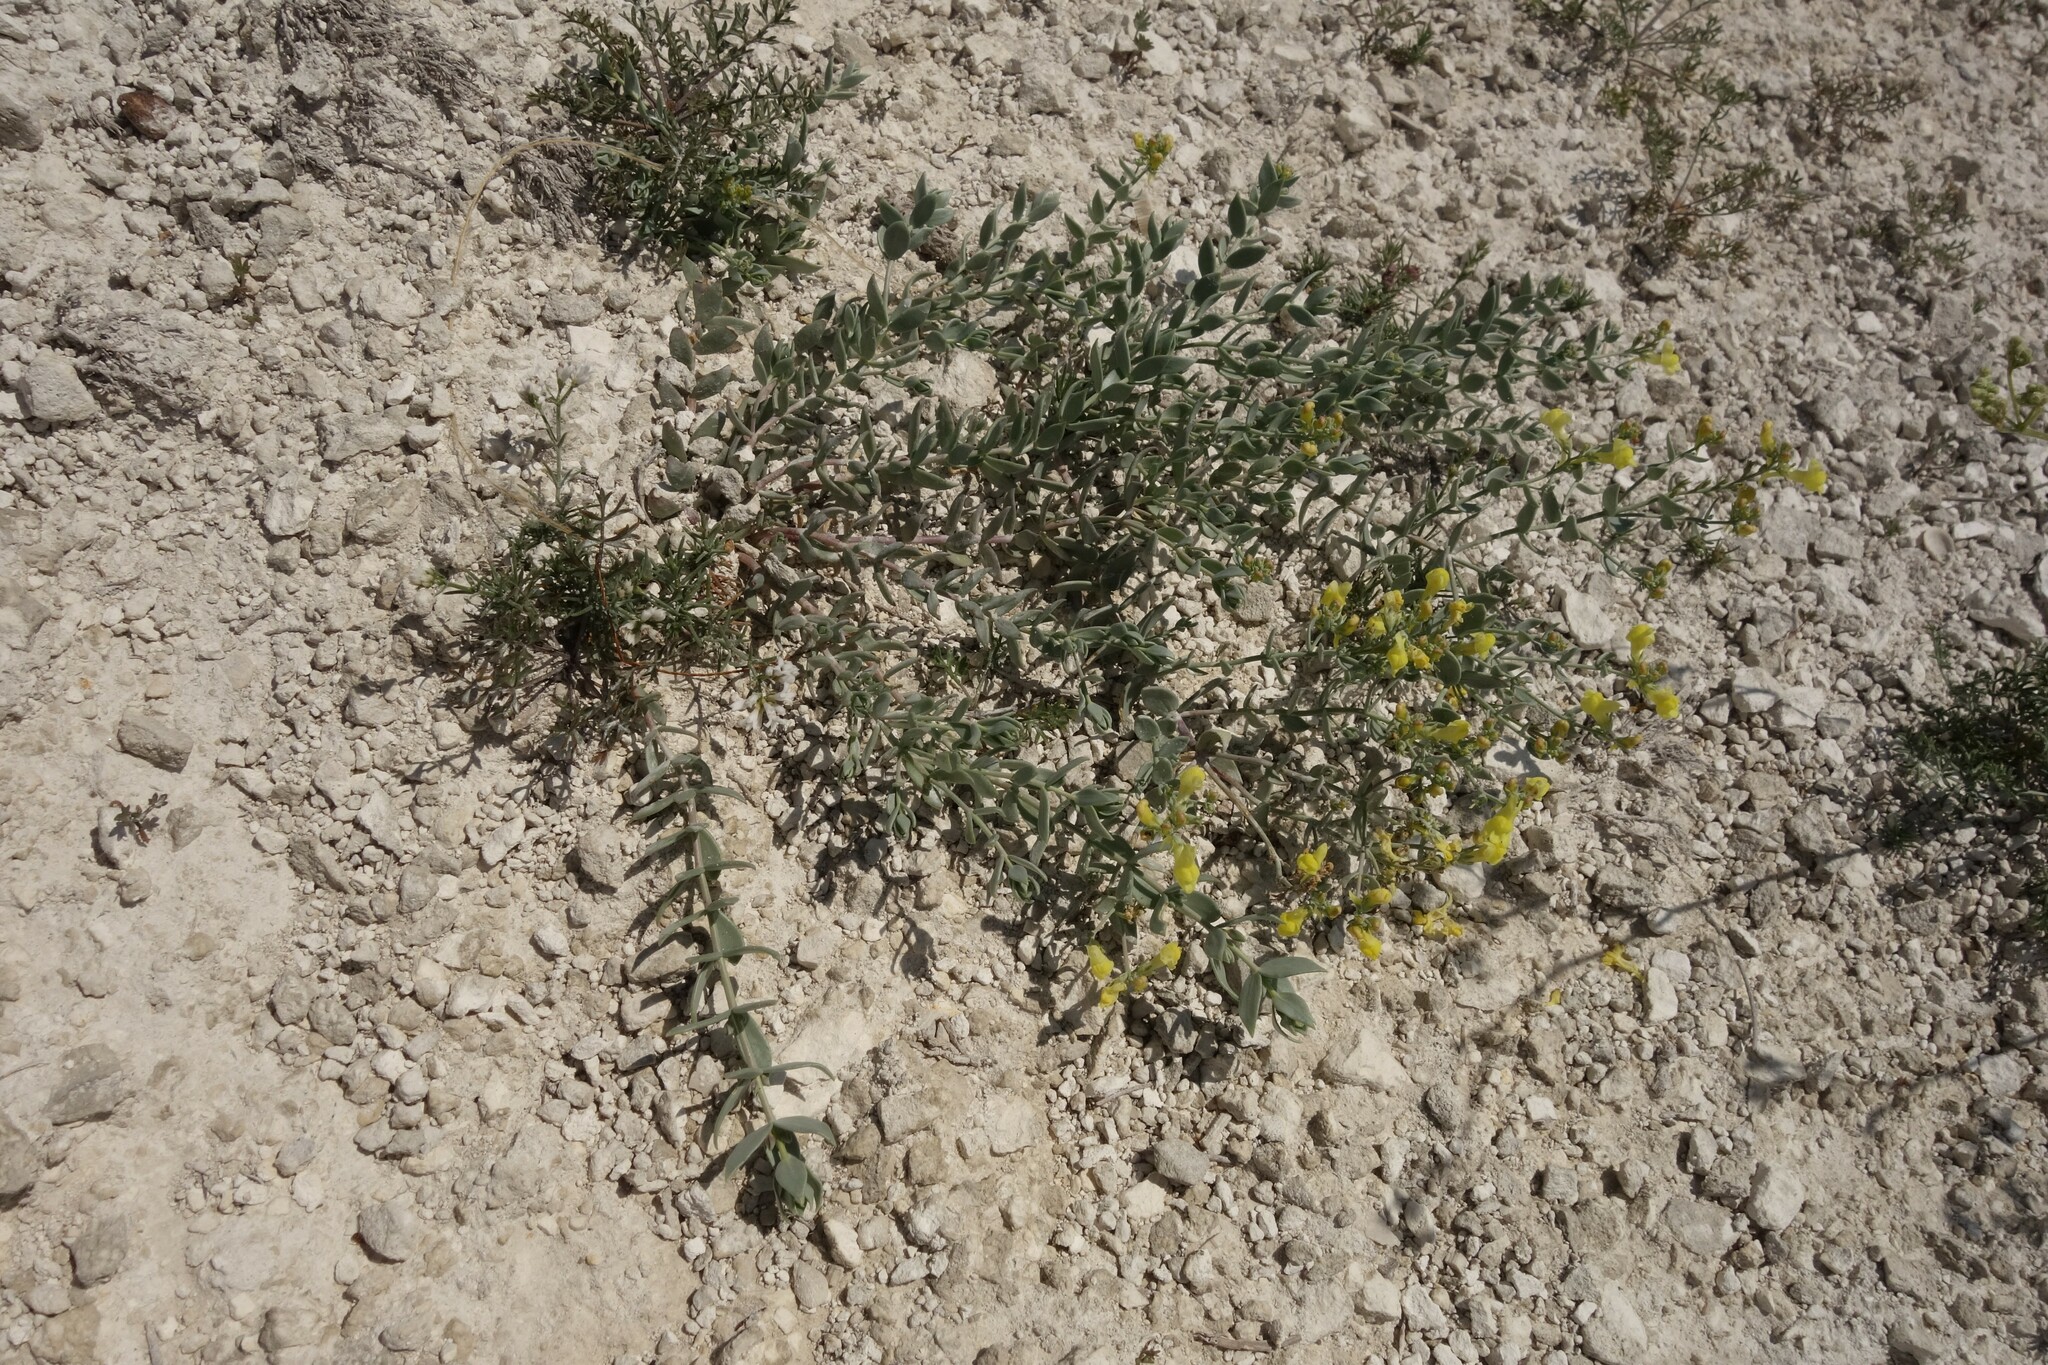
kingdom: Plantae
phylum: Tracheophyta
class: Magnoliopsida
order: Lamiales
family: Plantaginaceae
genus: Linaria
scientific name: Linaria cretacea
